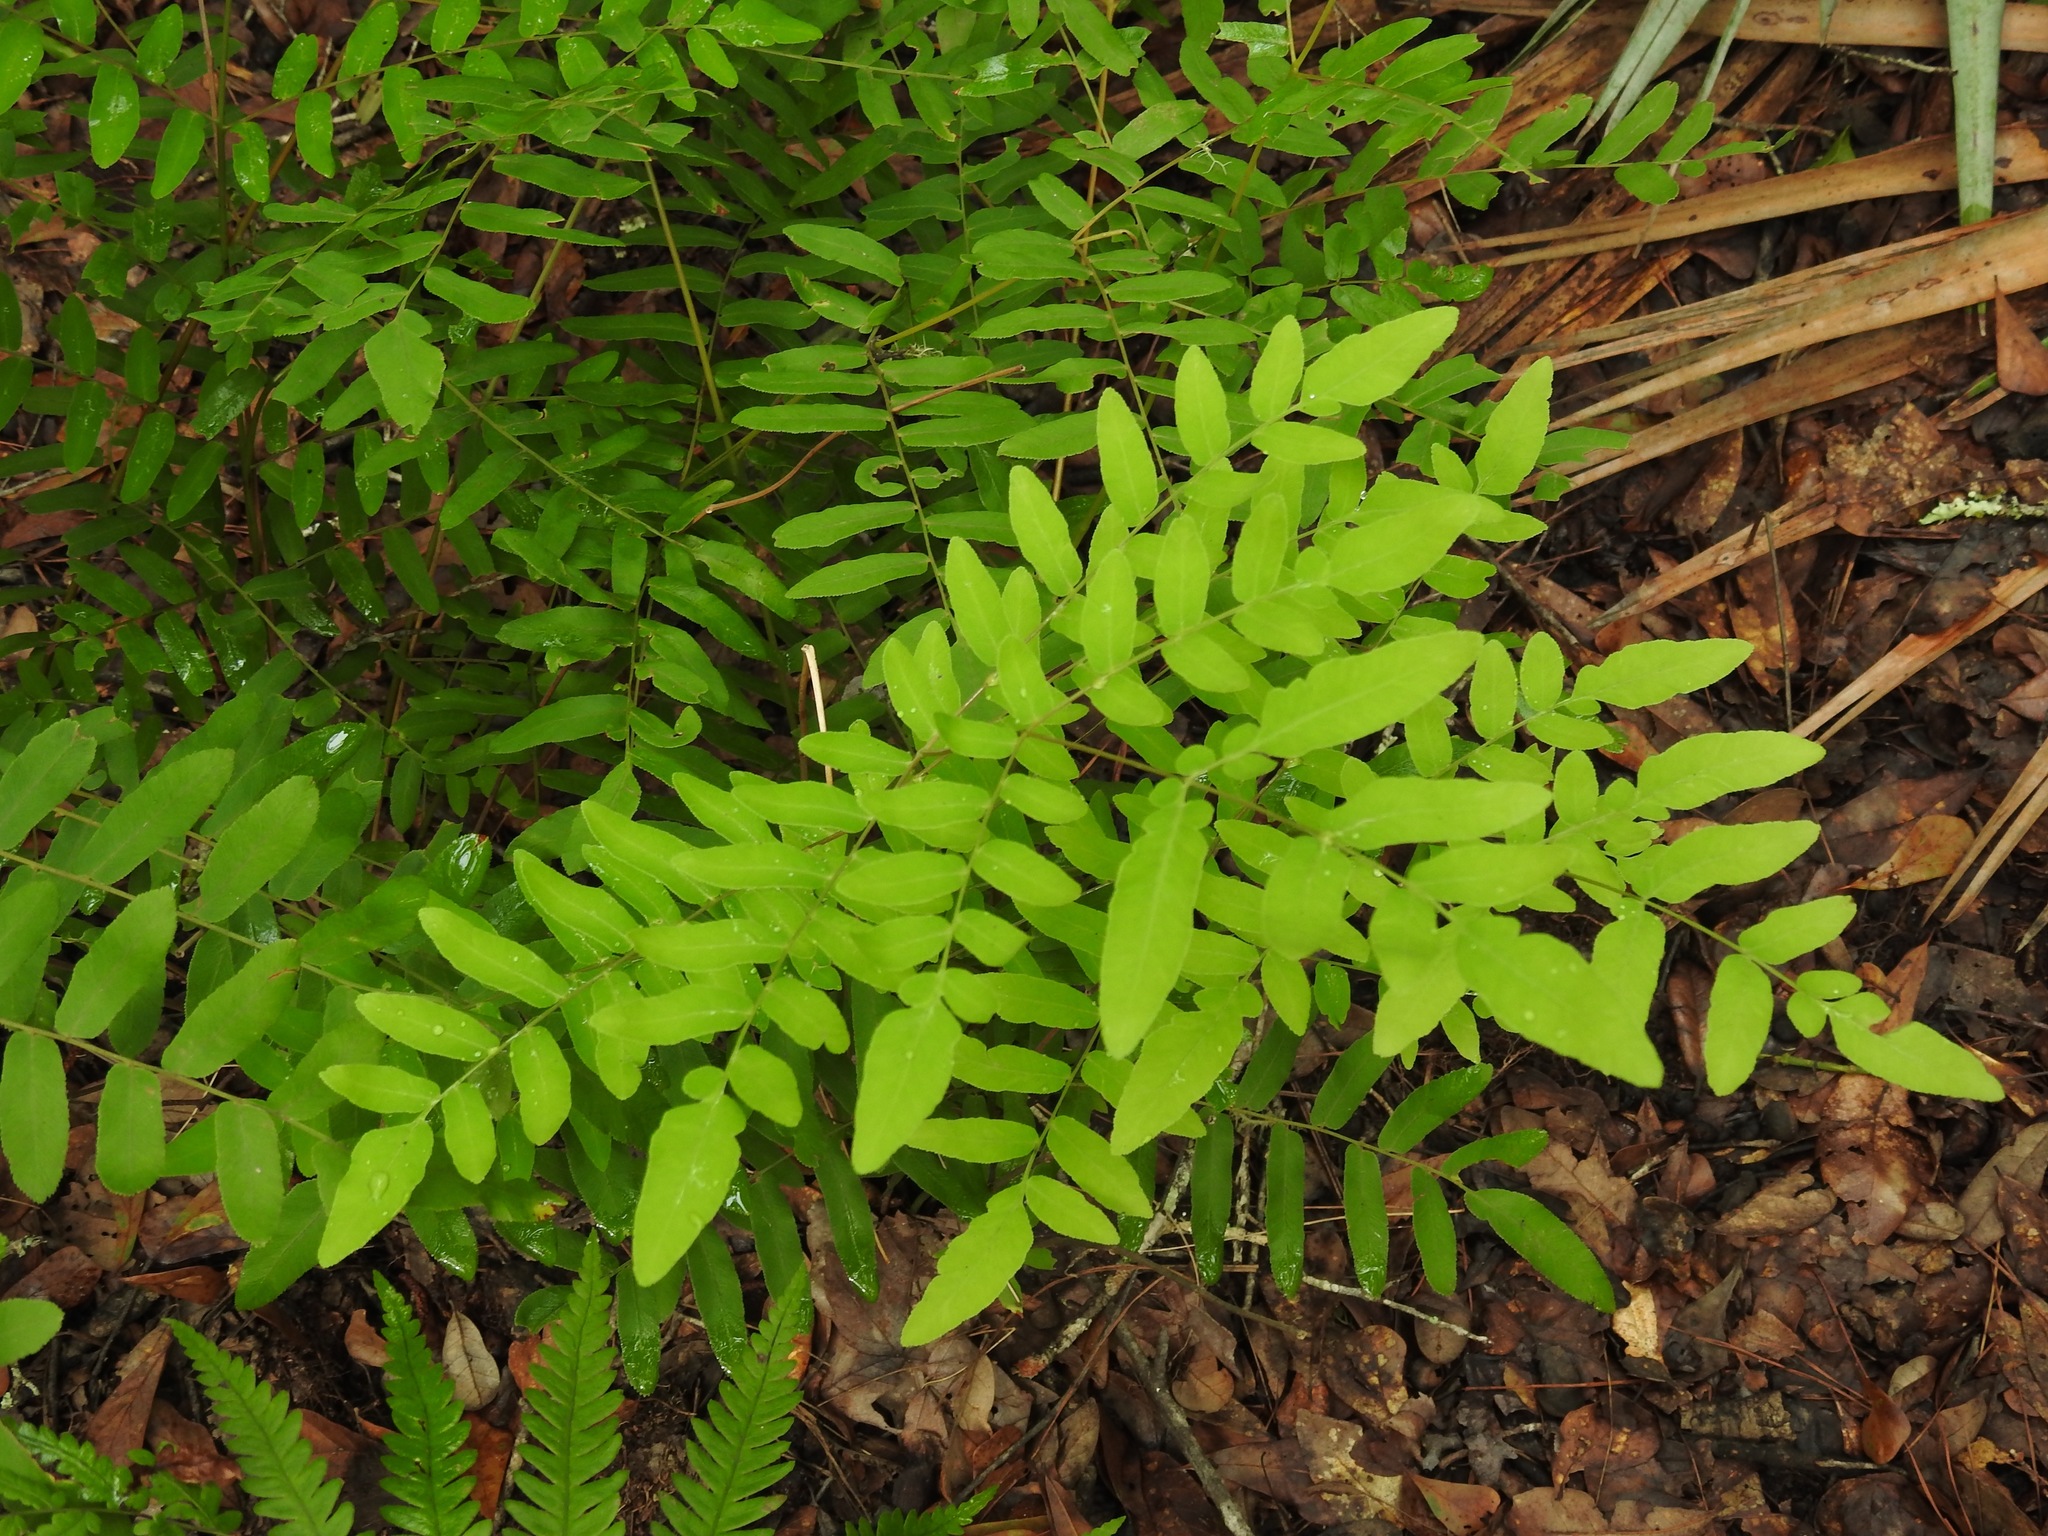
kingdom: Plantae
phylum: Tracheophyta
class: Polypodiopsida
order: Osmundales
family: Osmundaceae
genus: Osmunda
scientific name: Osmunda spectabilis
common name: American royal fern
